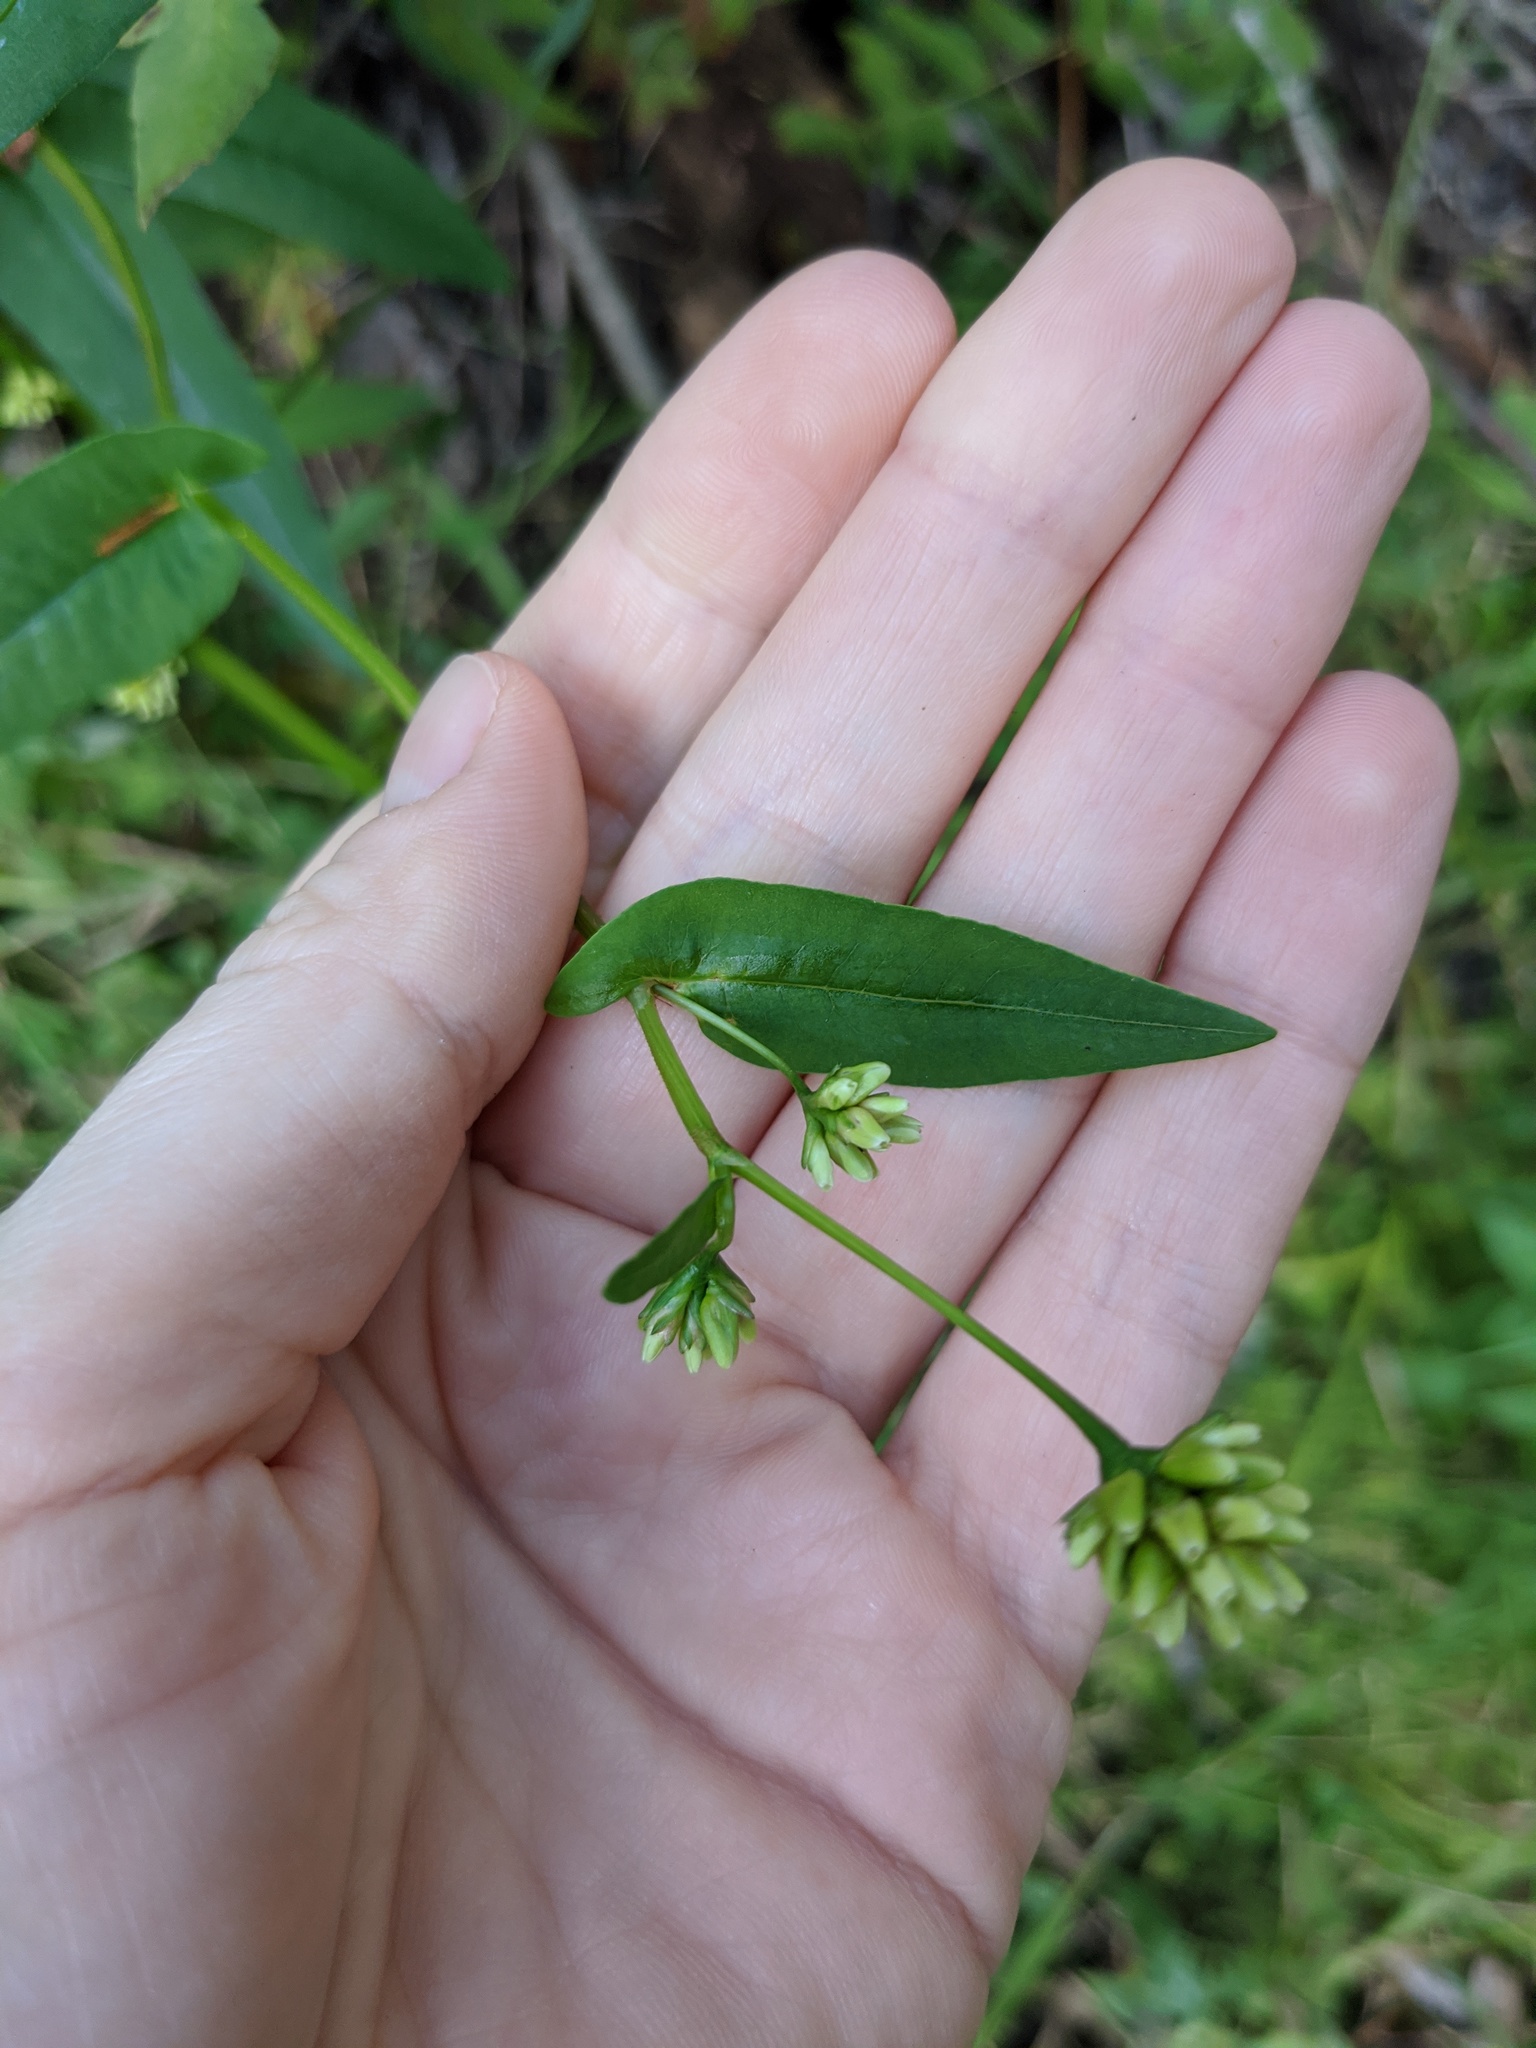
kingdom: Plantae
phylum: Tracheophyta
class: Magnoliopsida
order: Caryophyllales
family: Polygonaceae
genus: Persicaria
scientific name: Persicaria sagittata
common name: American tearthumb
